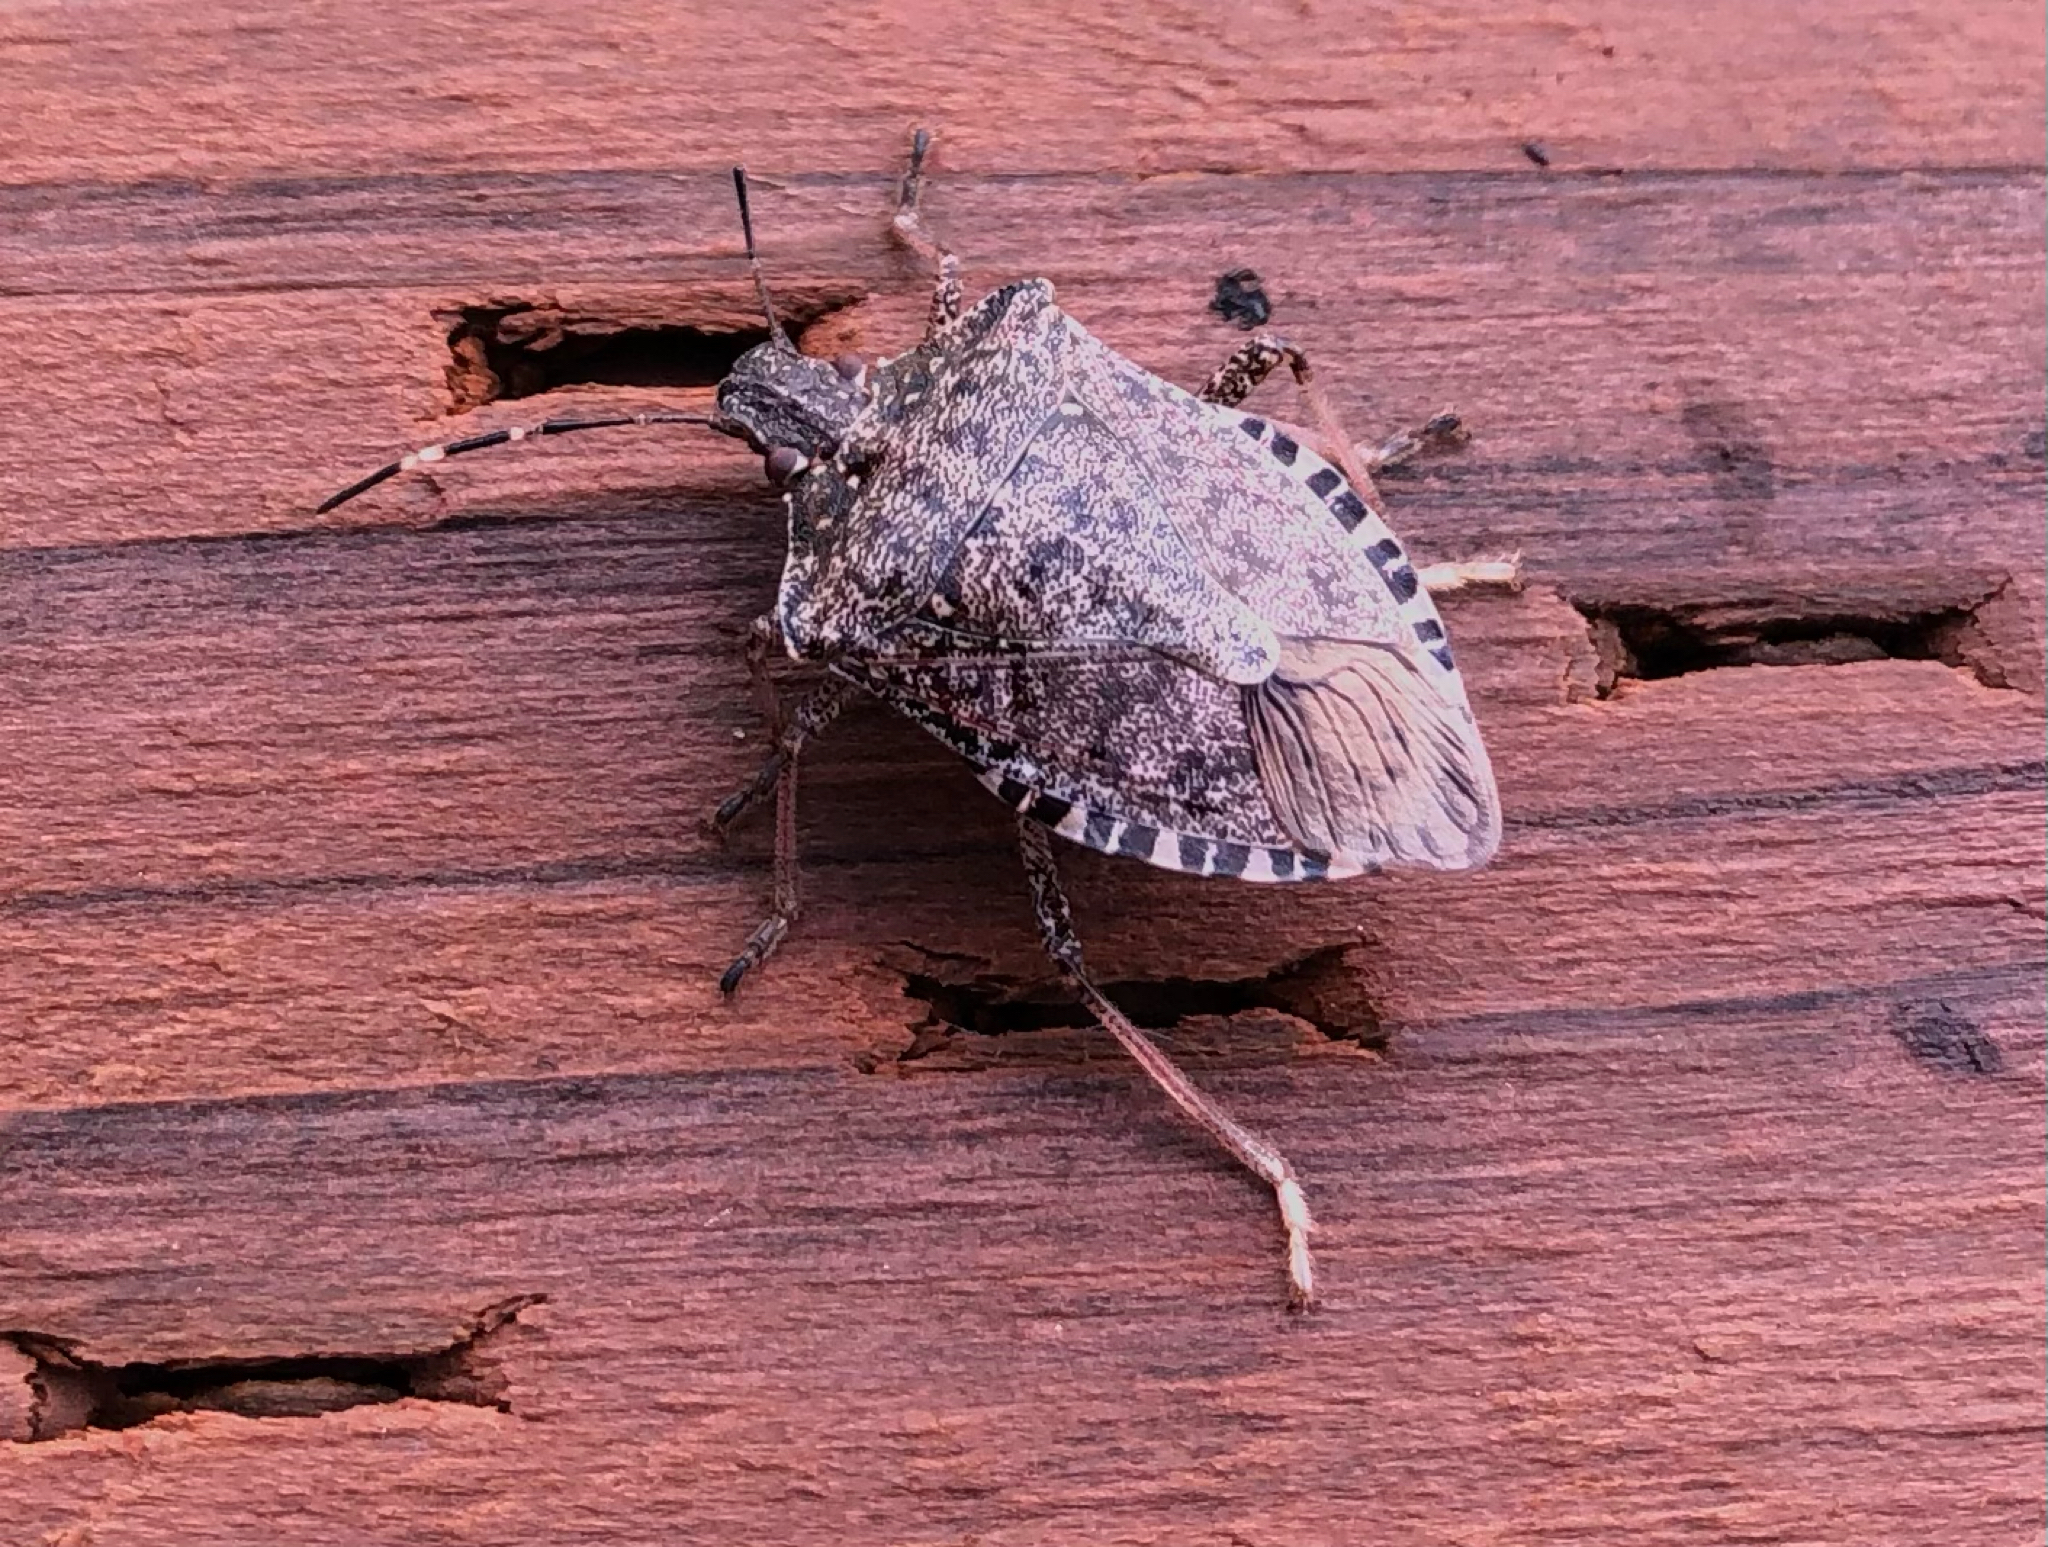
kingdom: Animalia
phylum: Arthropoda
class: Insecta
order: Hemiptera
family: Pentatomidae
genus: Halyomorpha
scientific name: Halyomorpha halys
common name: Brown marmorated stink bug
